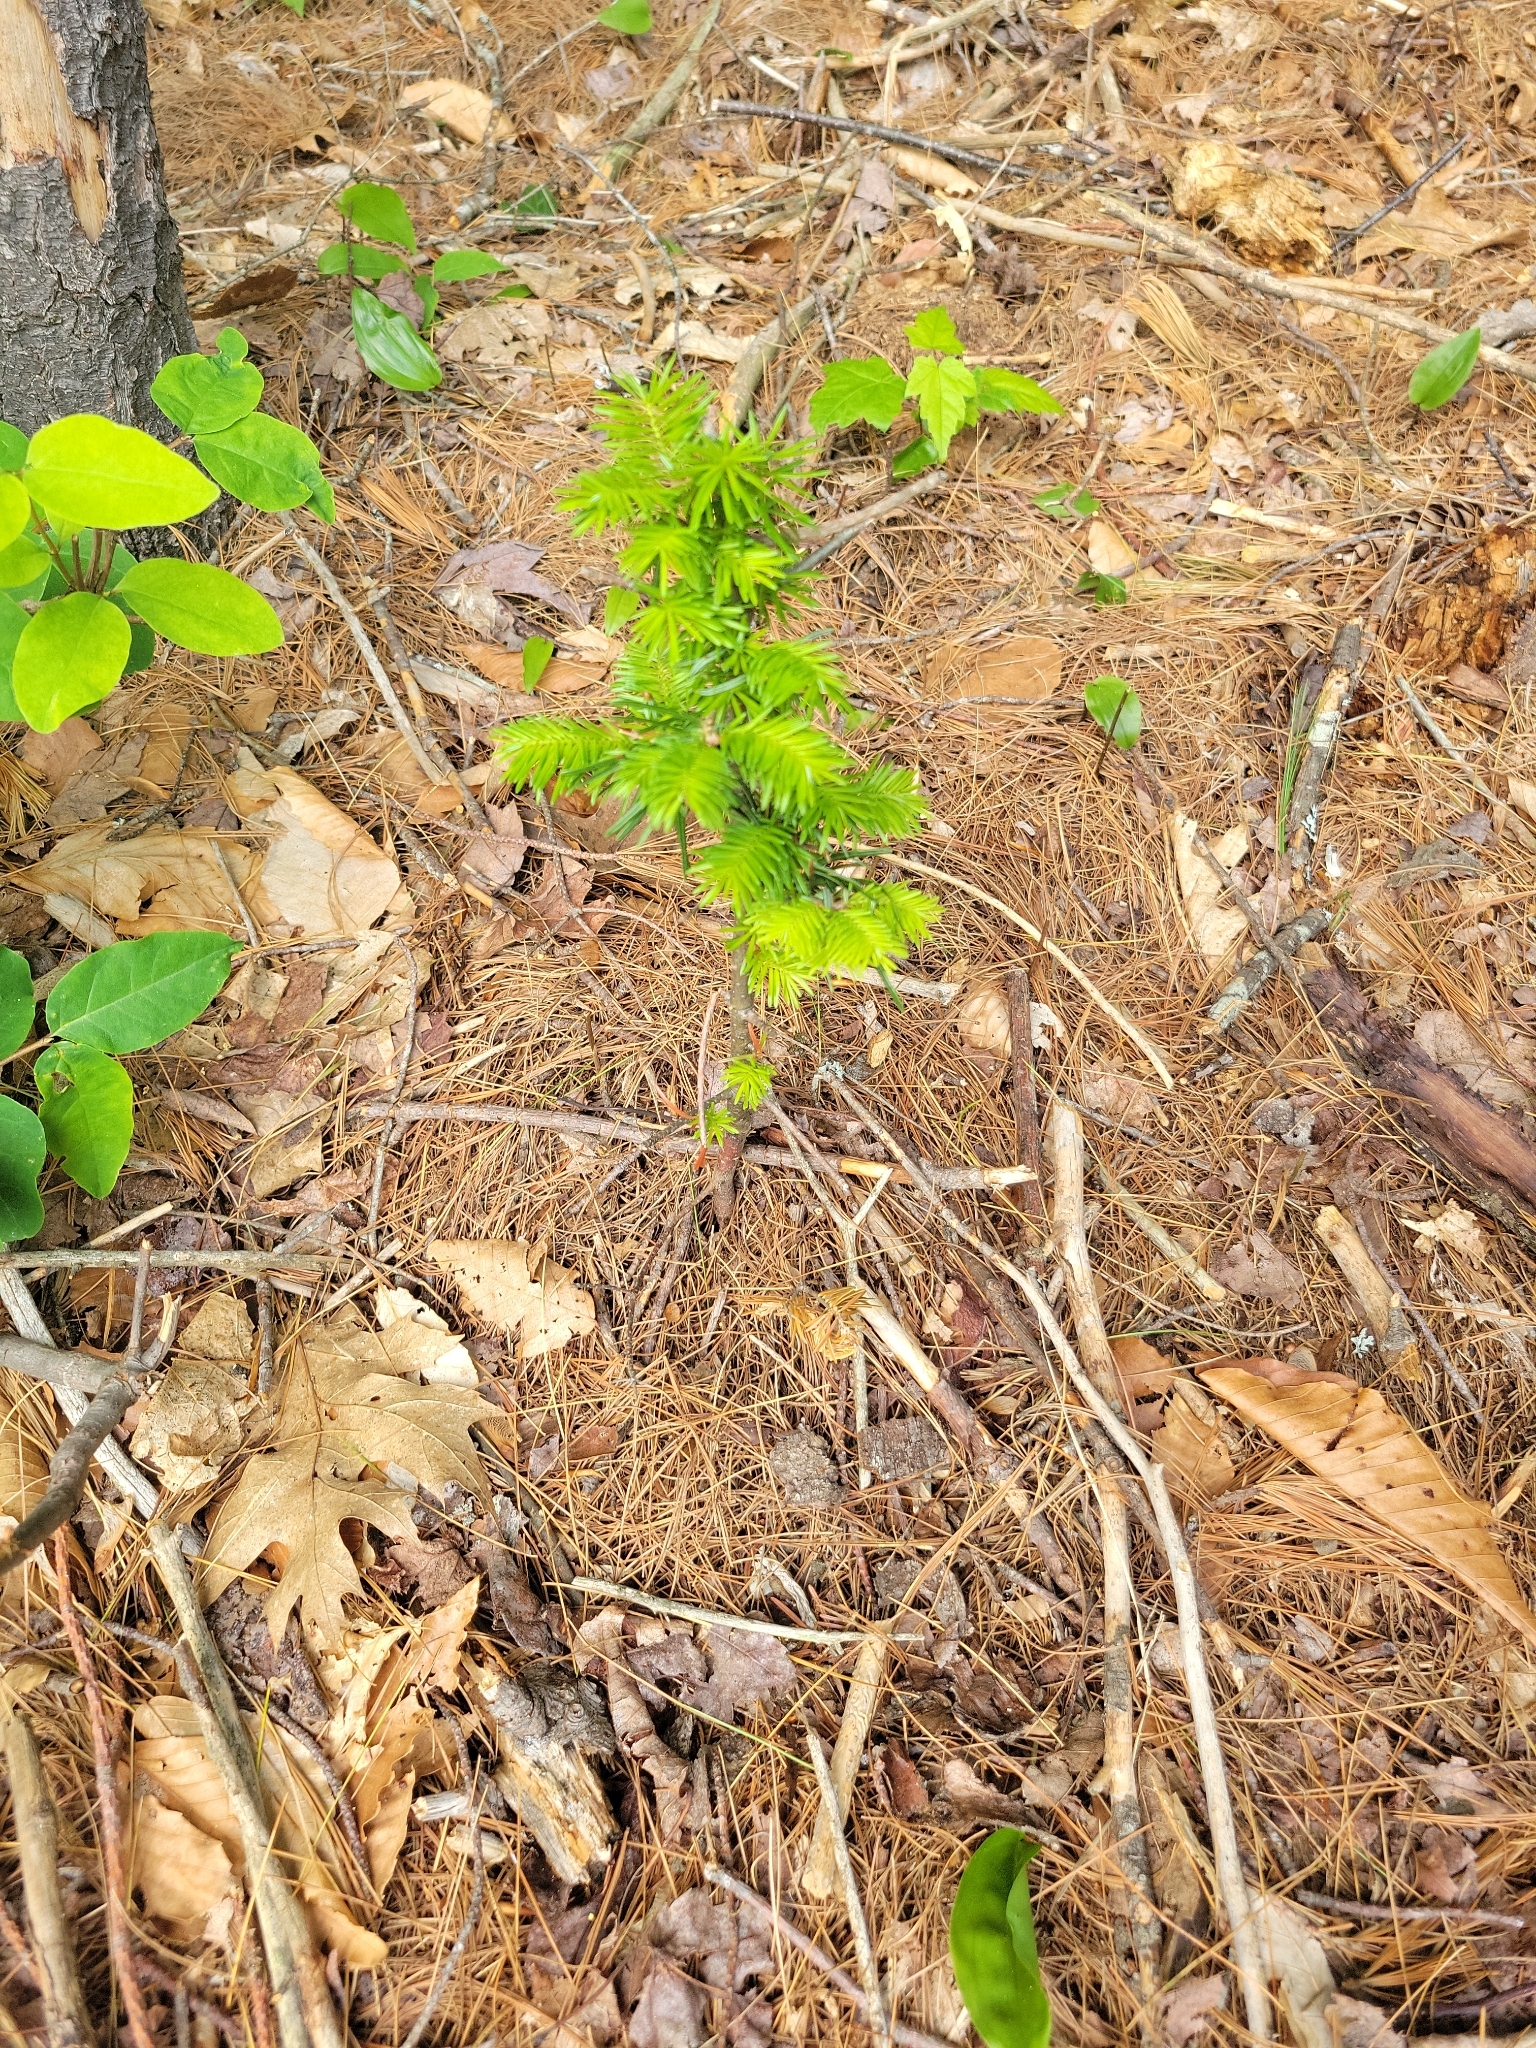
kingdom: Plantae
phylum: Tracheophyta
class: Pinopsida
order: Pinales
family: Taxaceae
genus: Taxus
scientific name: Taxus canadensis
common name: American yew
